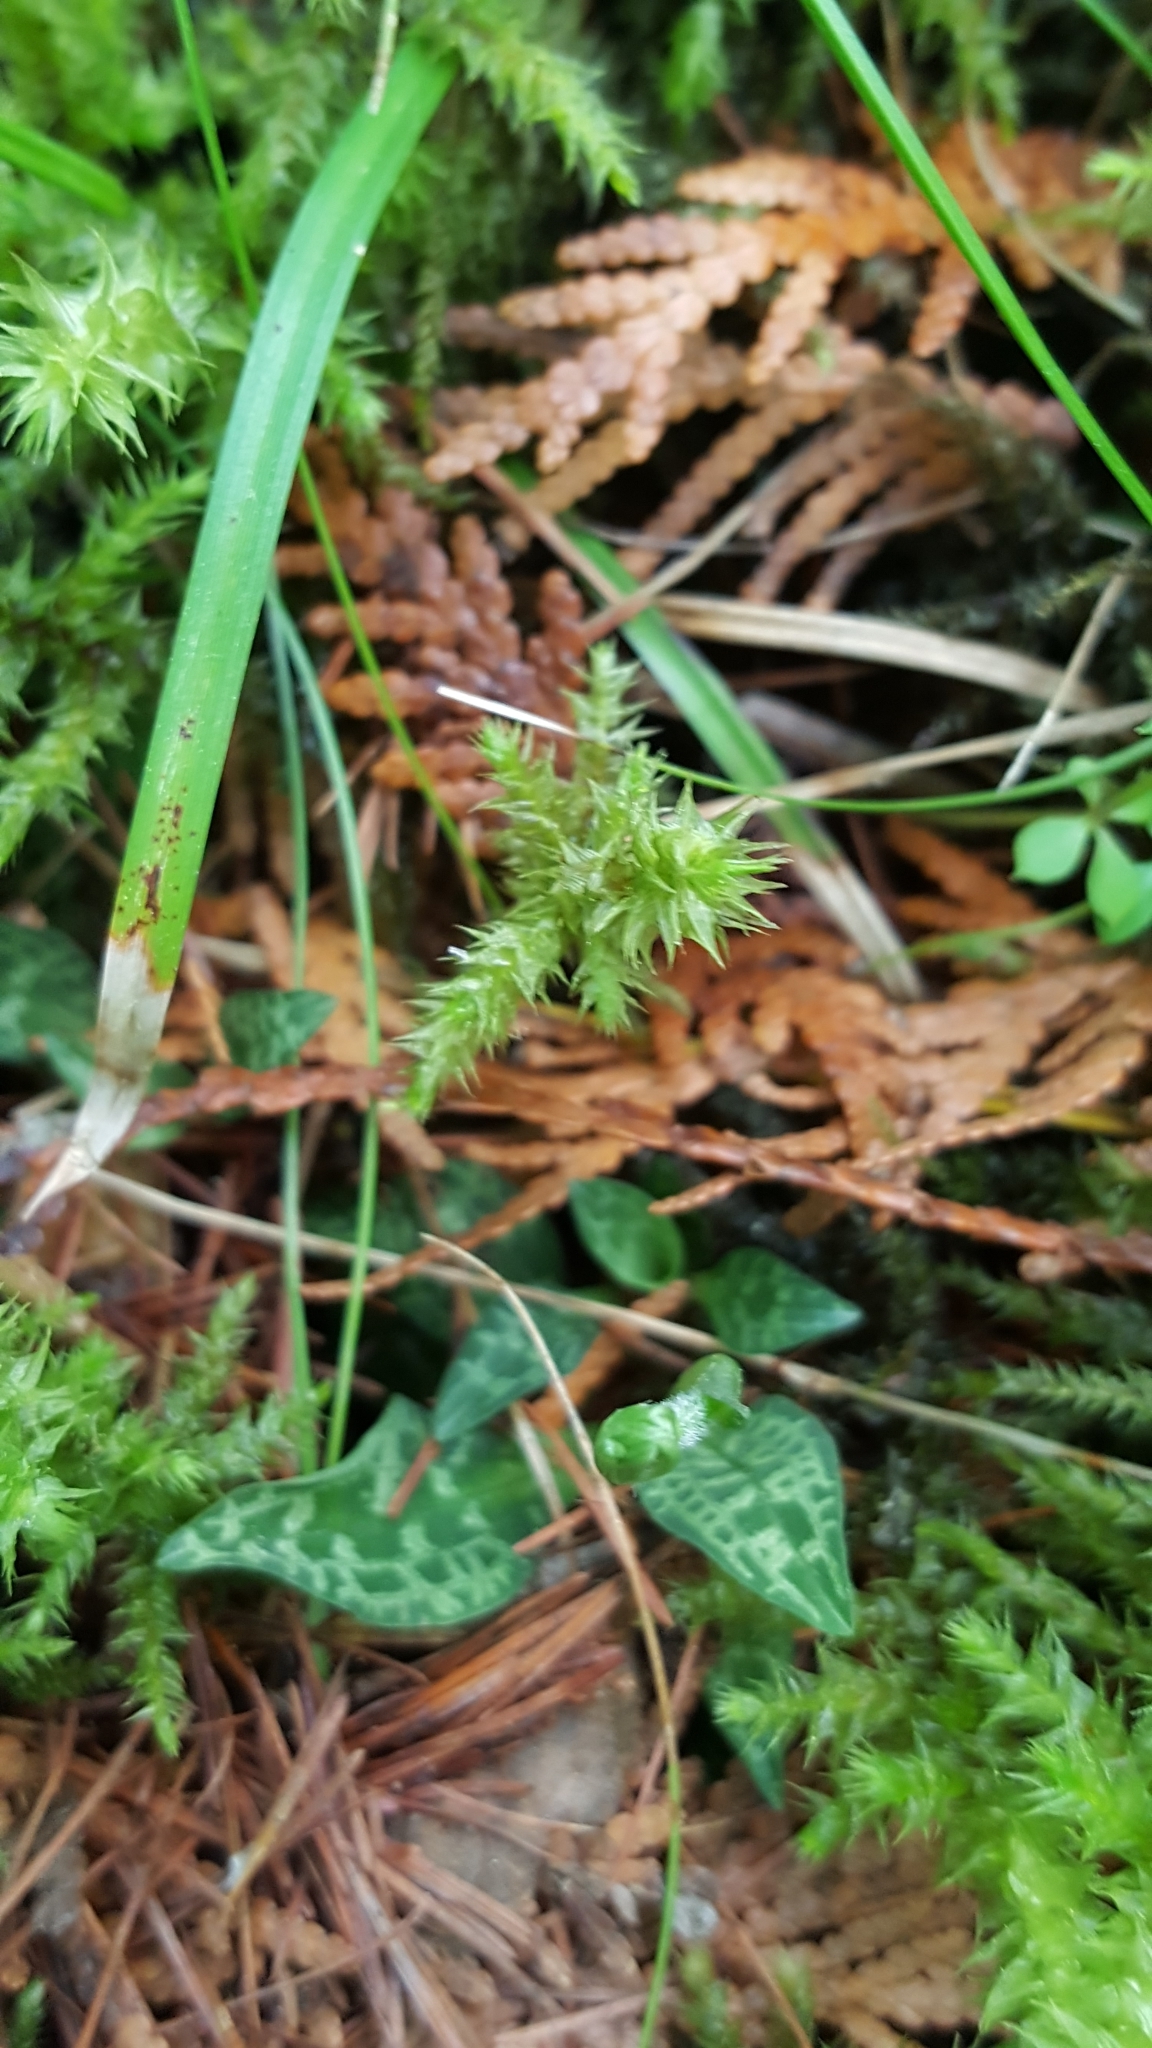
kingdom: Plantae
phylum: Tracheophyta
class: Liliopsida
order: Asparagales
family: Orchidaceae
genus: Goodyera
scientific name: Goodyera repens
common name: Creeping lady's-tresses
